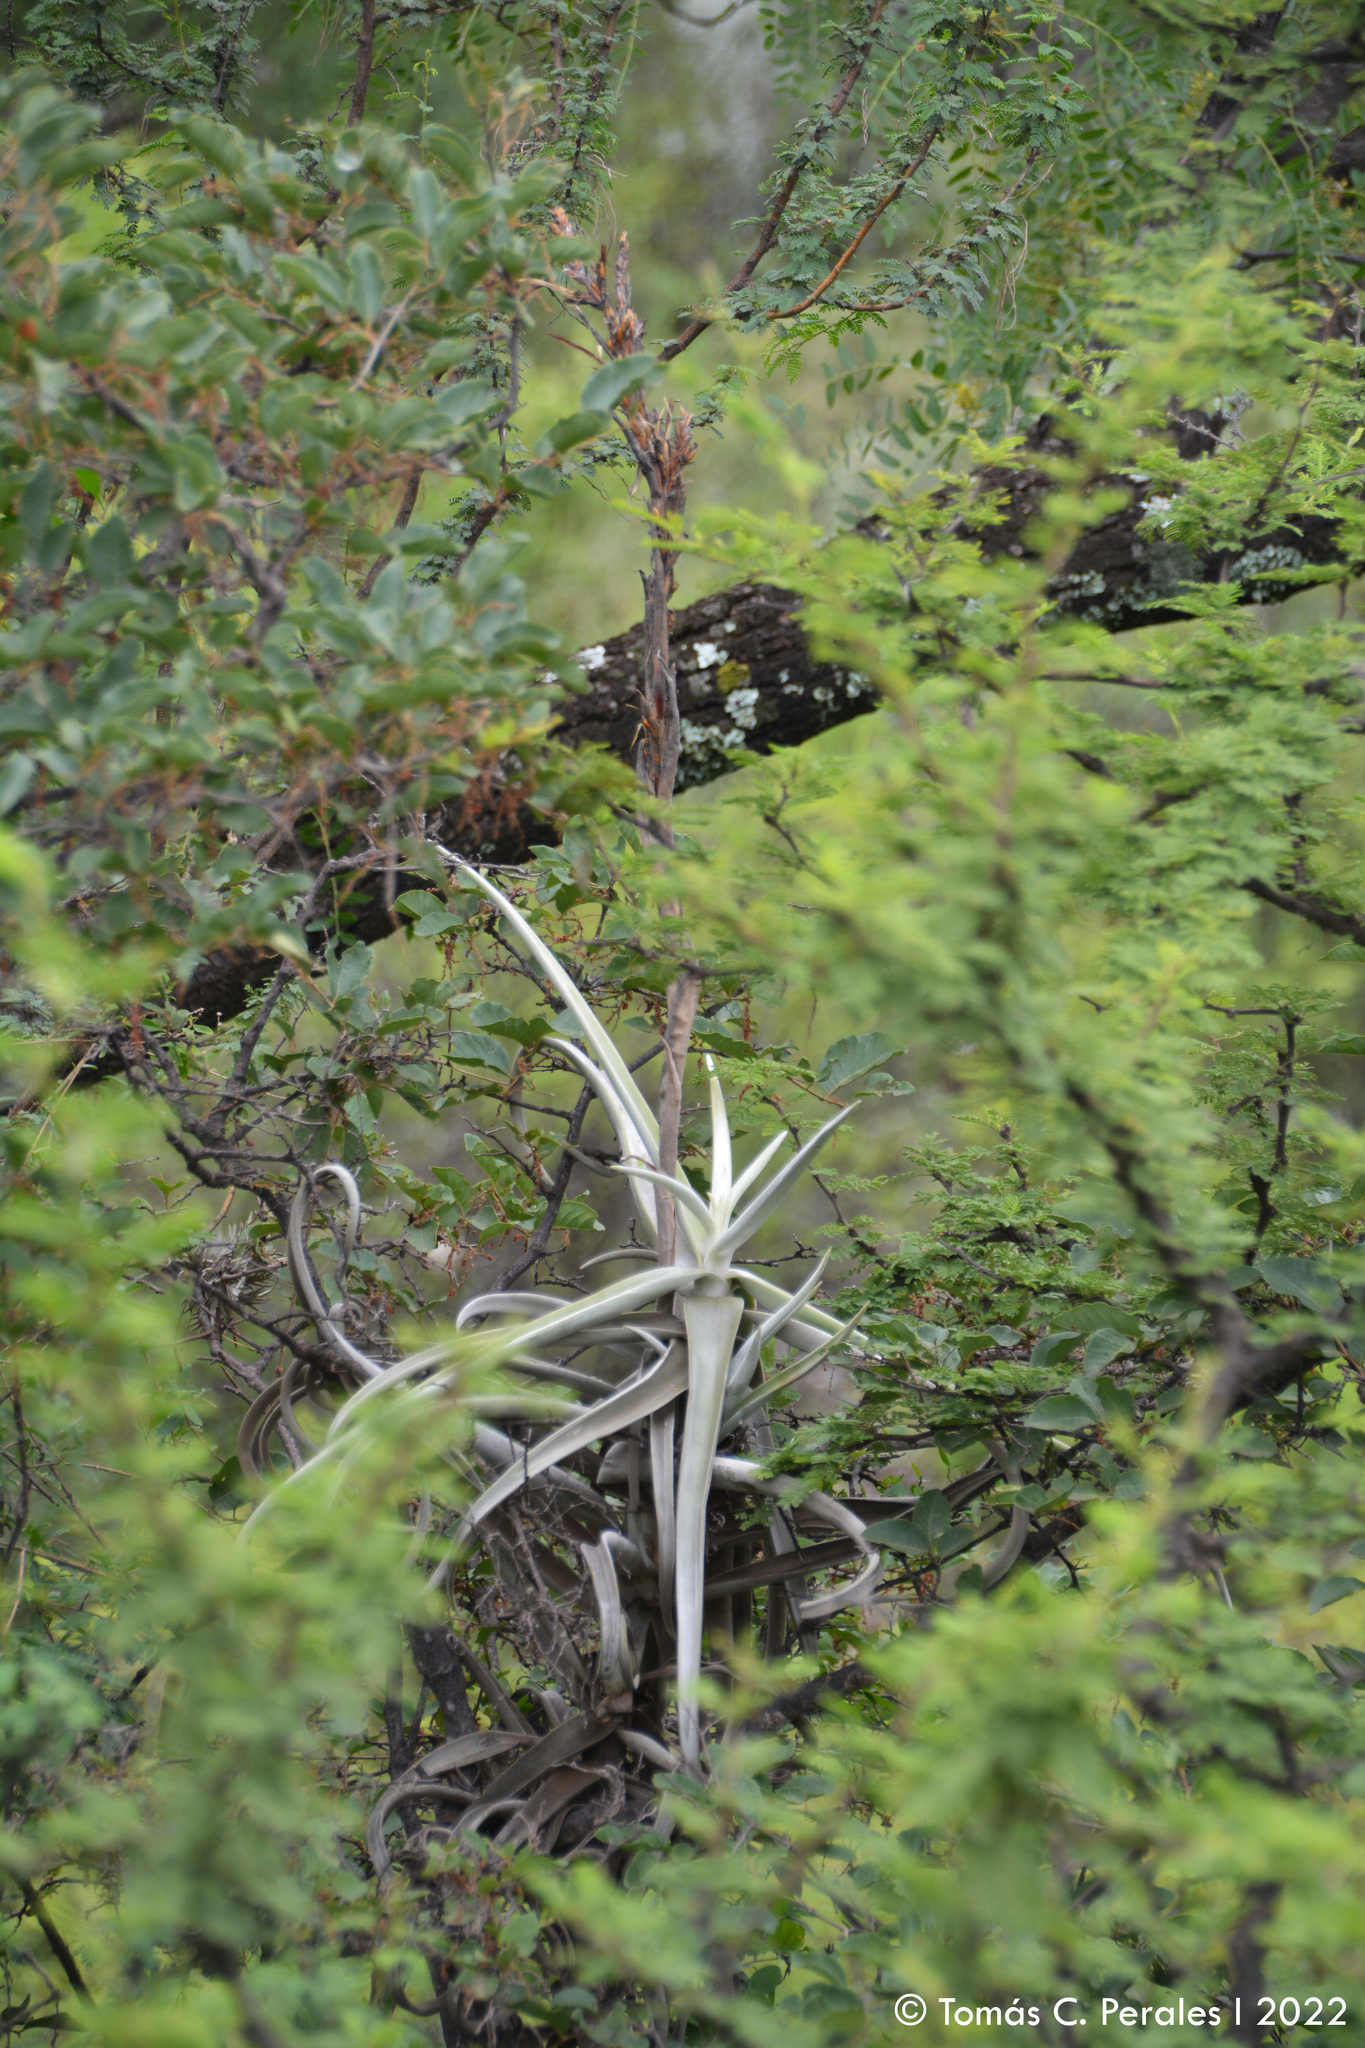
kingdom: Plantae
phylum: Tracheophyta
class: Liliopsida
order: Poales
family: Bromeliaceae
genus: Tillandsia
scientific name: Tillandsia duratii
